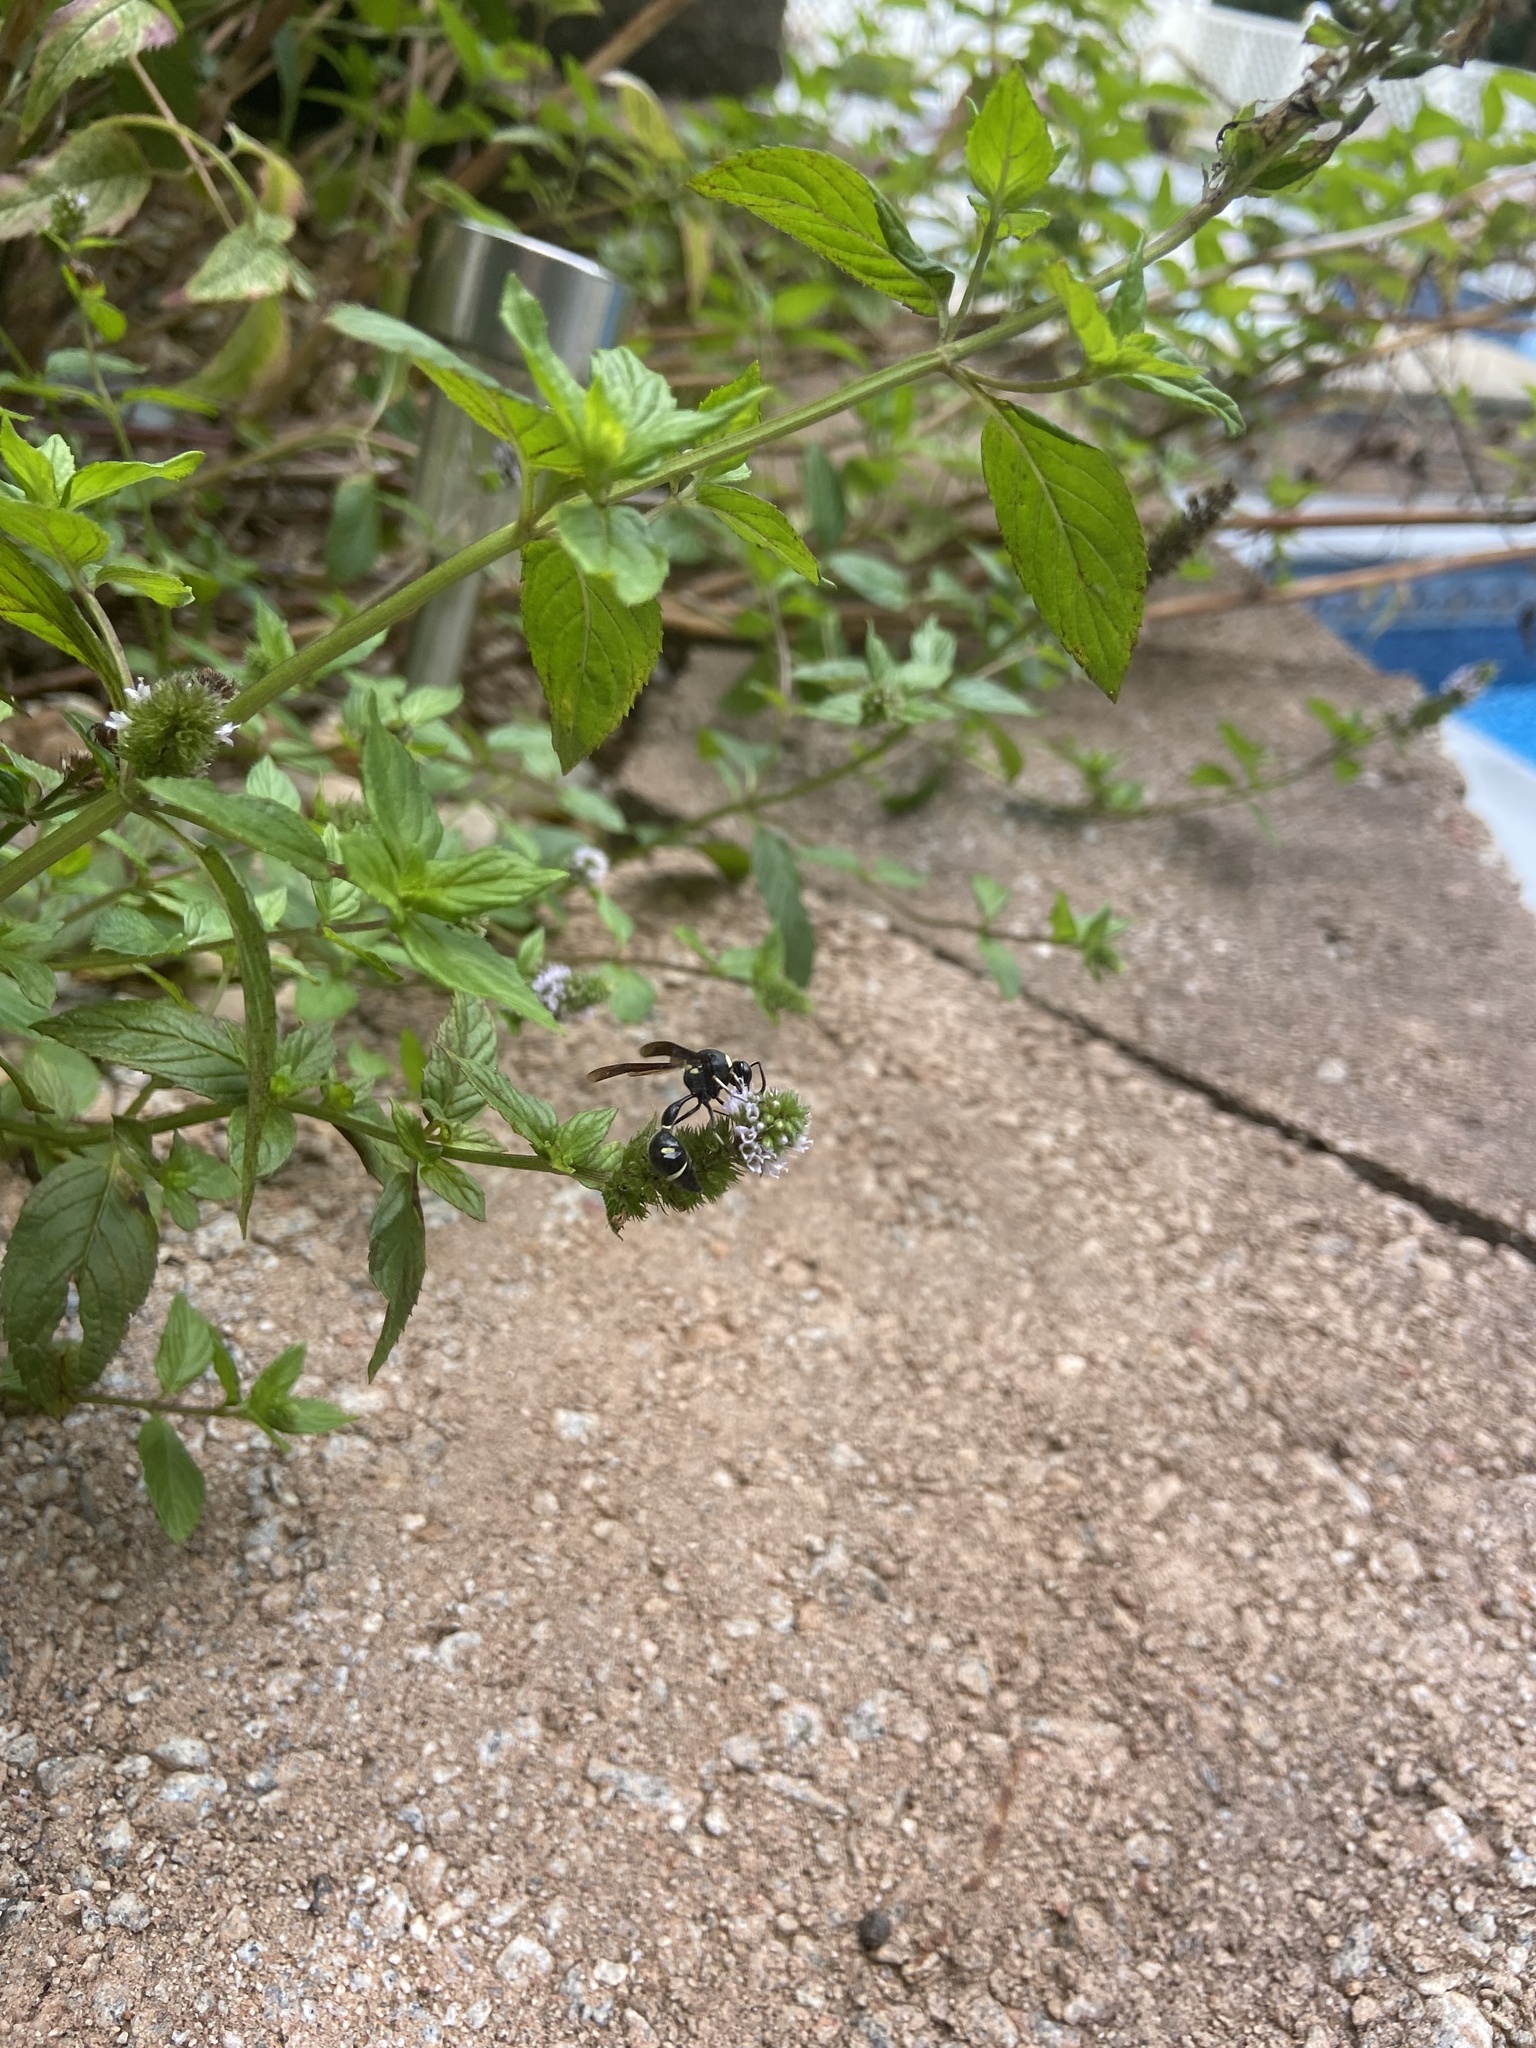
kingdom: Animalia
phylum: Arthropoda
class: Insecta
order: Hymenoptera
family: Vespidae
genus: Eumenes
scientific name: Eumenes fraternus
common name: Fraternal potter wasp
